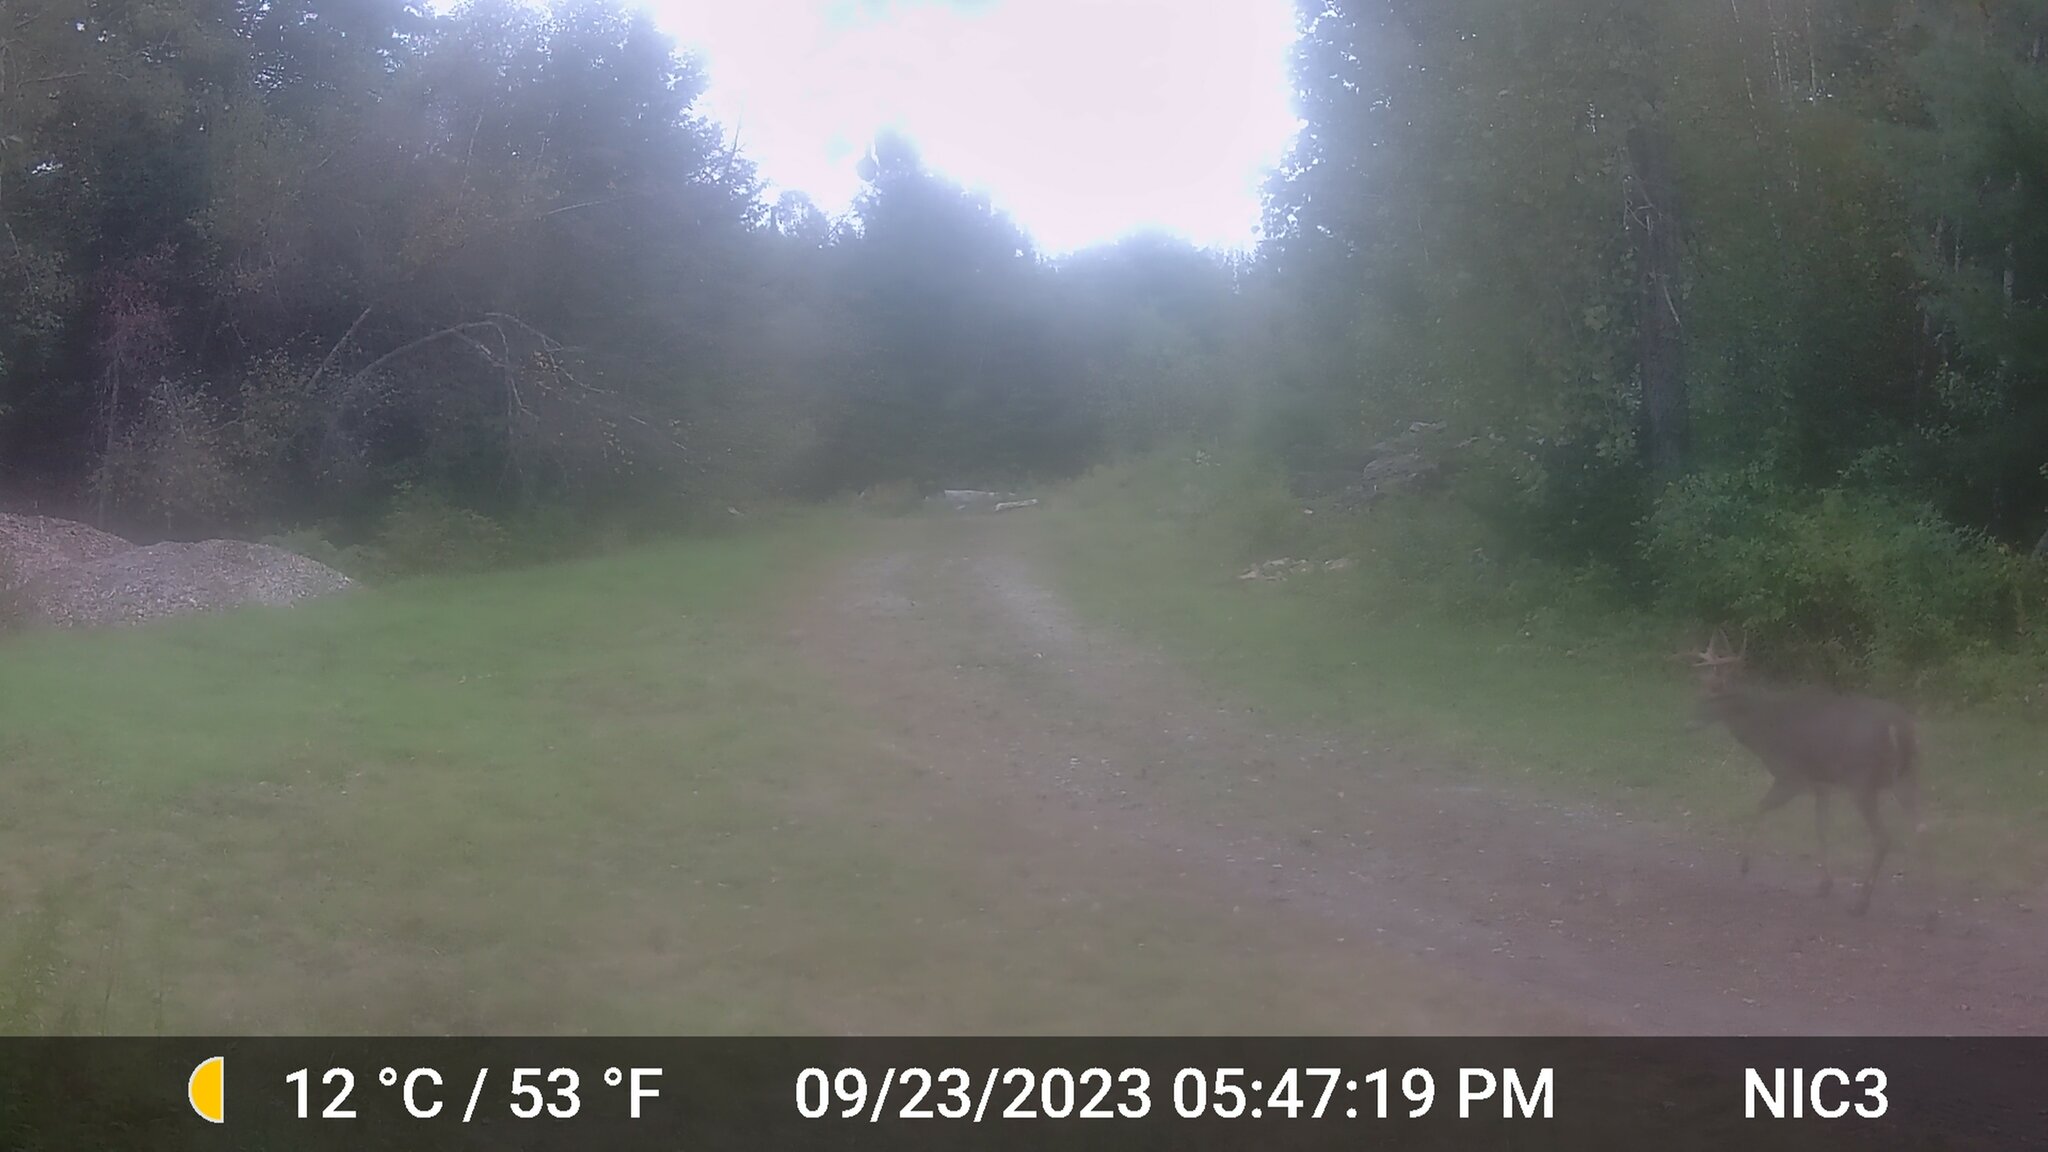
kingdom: Animalia
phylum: Chordata
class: Mammalia
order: Artiodactyla
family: Cervidae
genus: Odocoileus
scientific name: Odocoileus virginianus
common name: White-tailed deer
